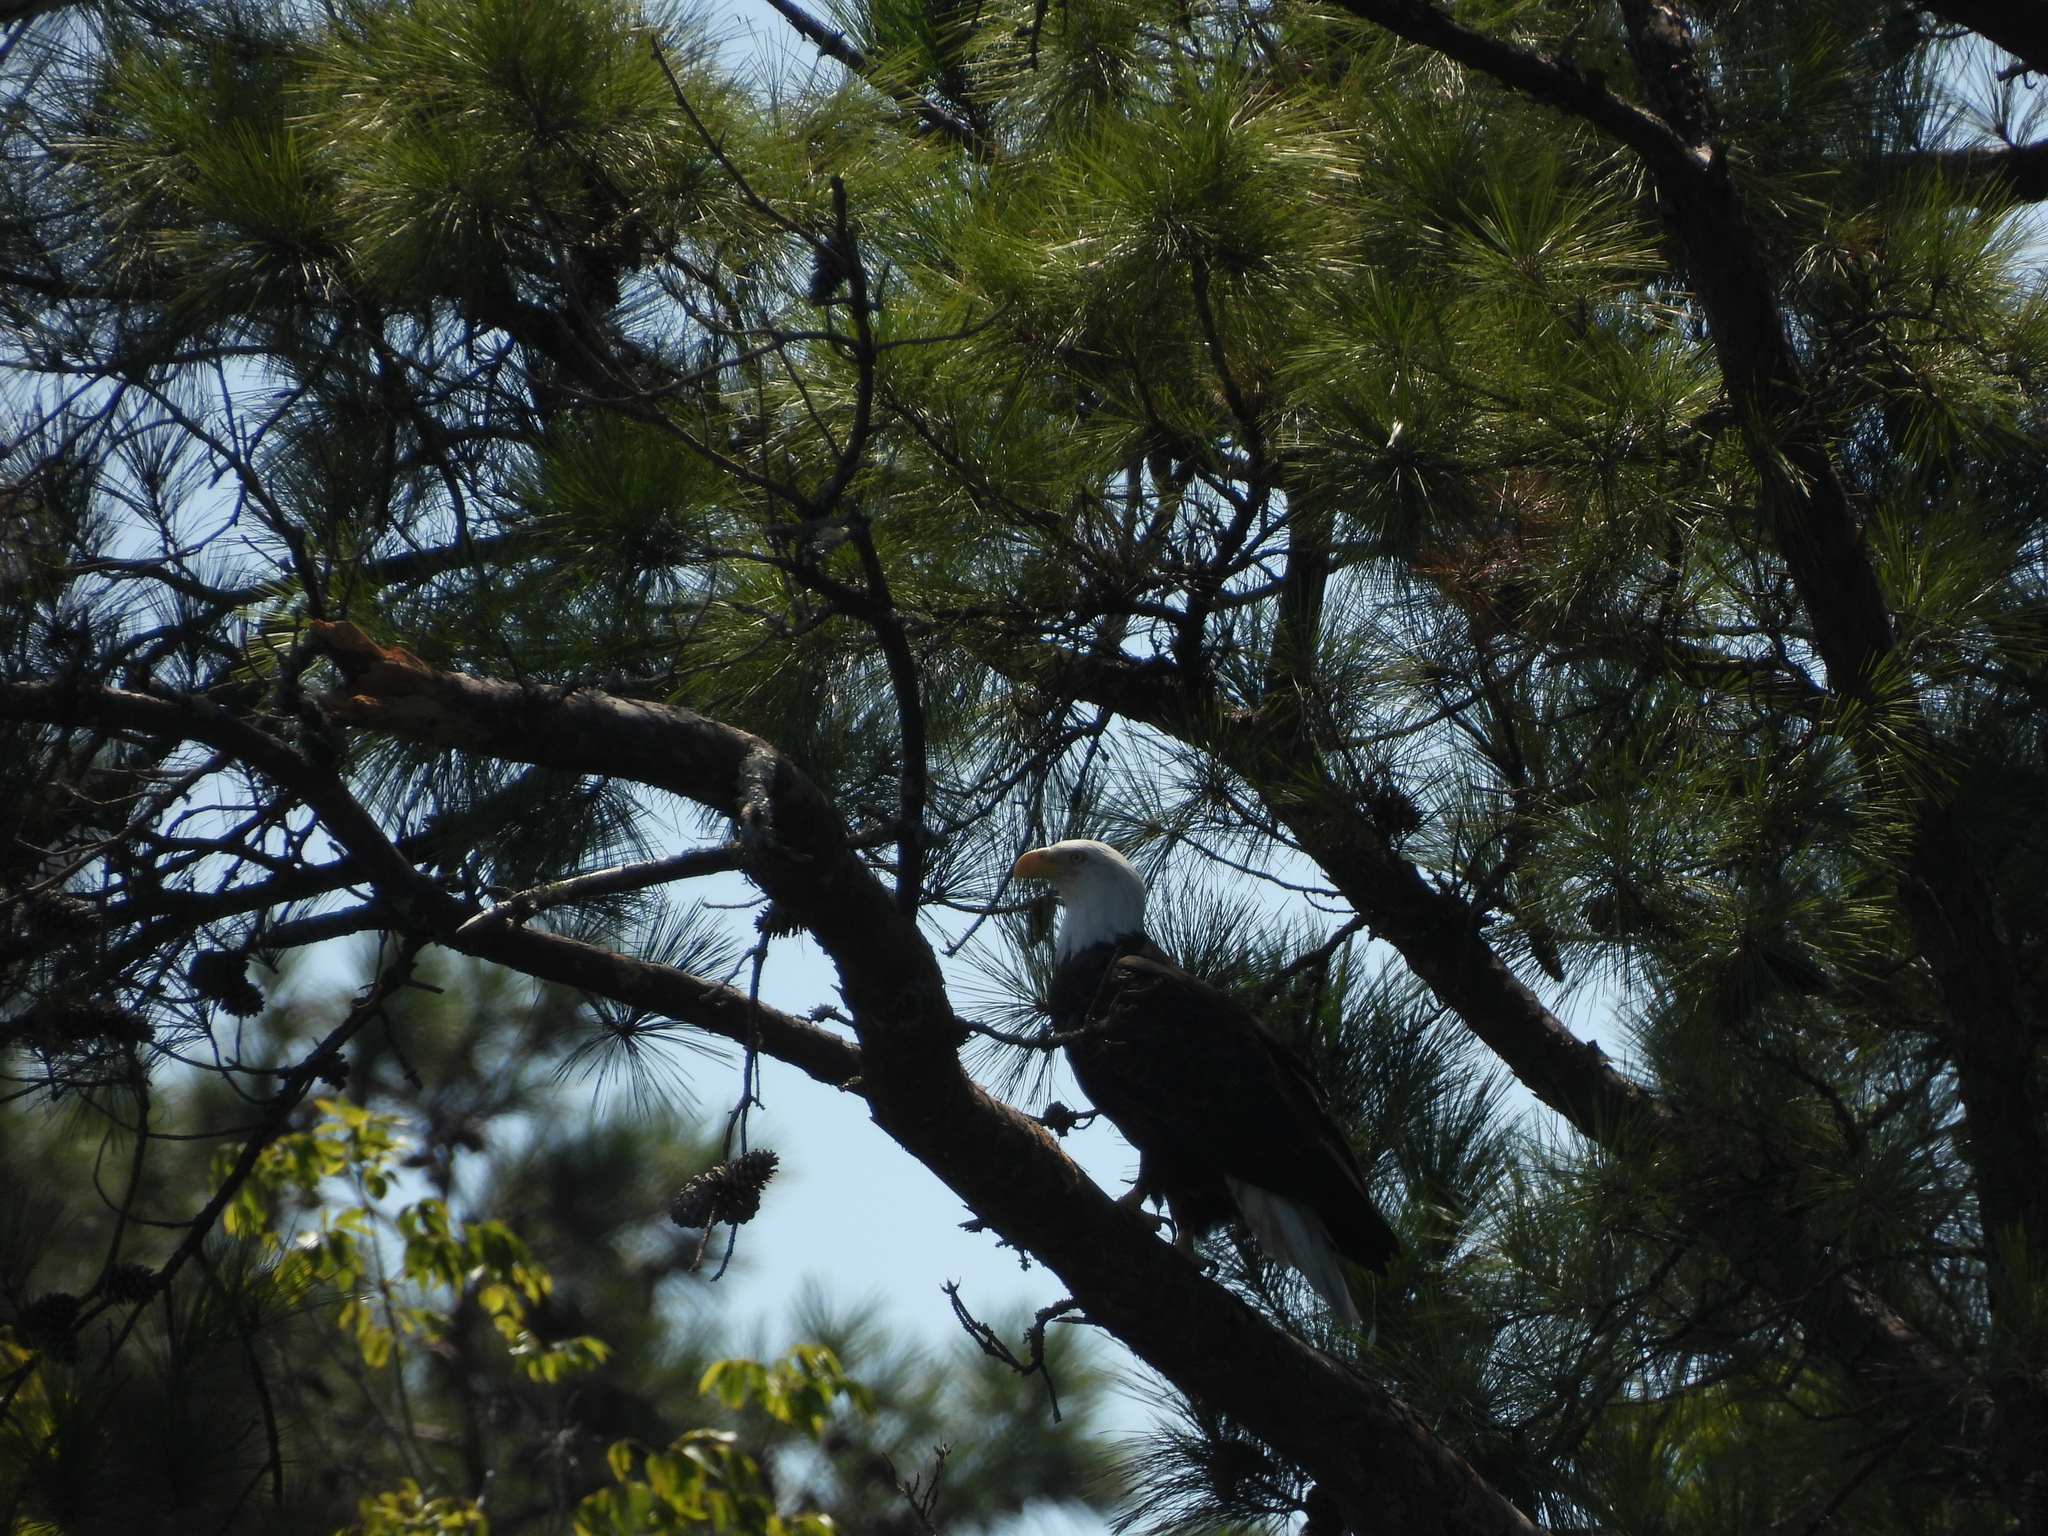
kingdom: Animalia
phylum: Chordata
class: Aves
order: Accipitriformes
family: Accipitridae
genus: Haliaeetus
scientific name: Haliaeetus leucocephalus
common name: Bald eagle
